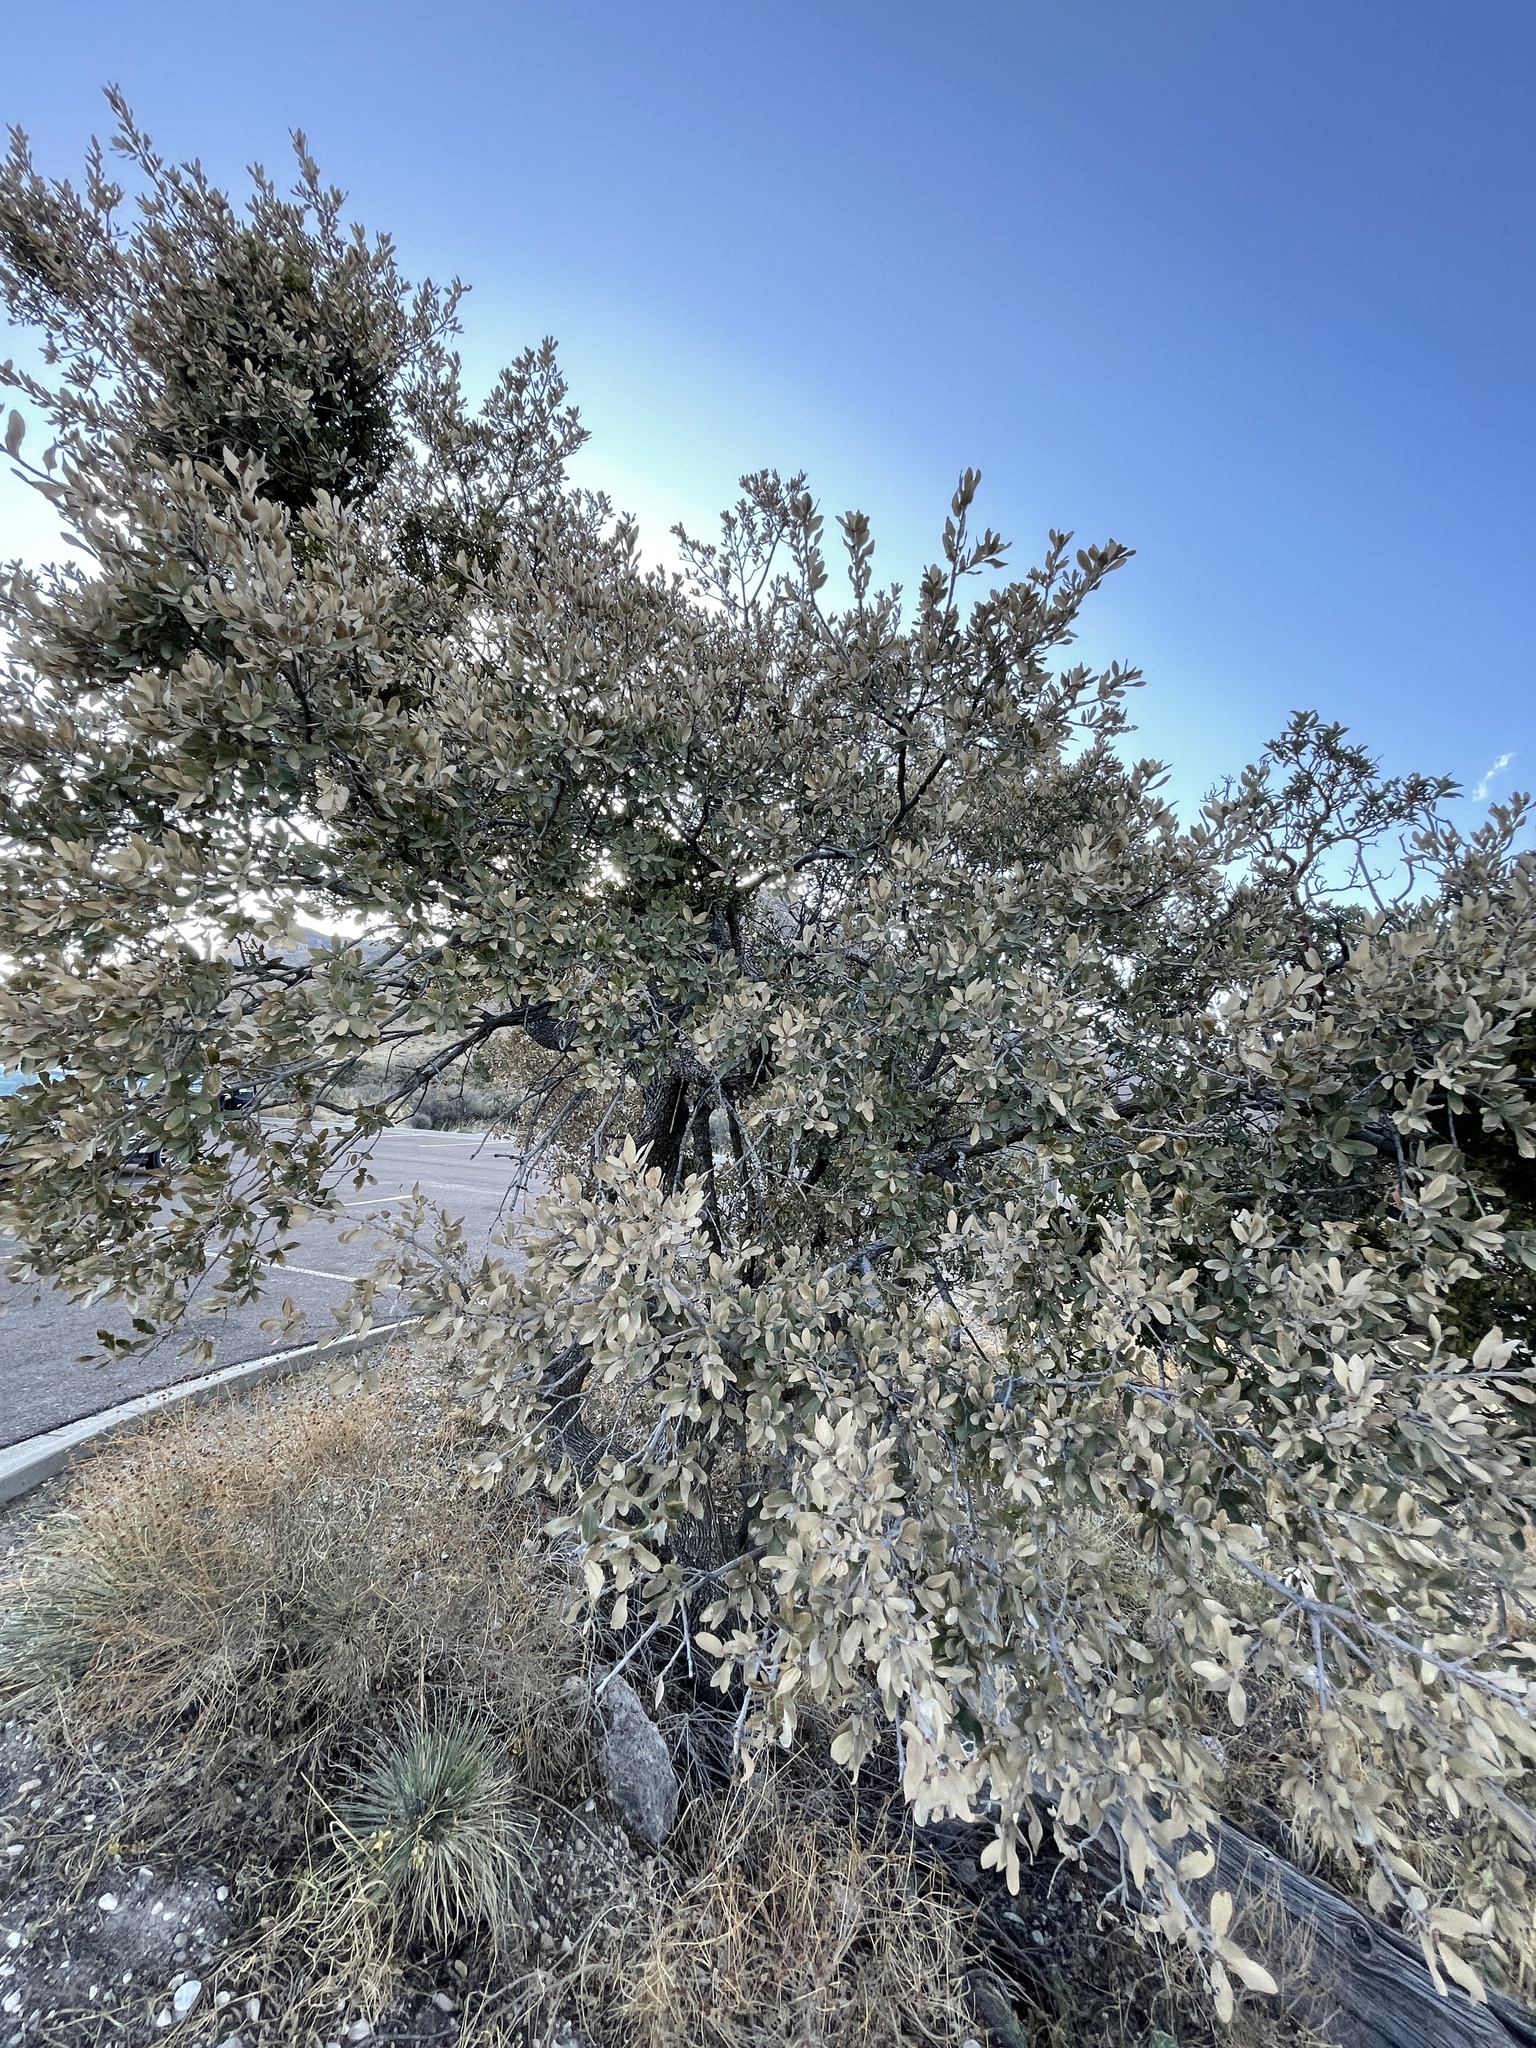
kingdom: Plantae
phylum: Tracheophyta
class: Magnoliopsida
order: Fagales
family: Fagaceae
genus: Quercus
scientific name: Quercus grisea
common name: Gray oak
